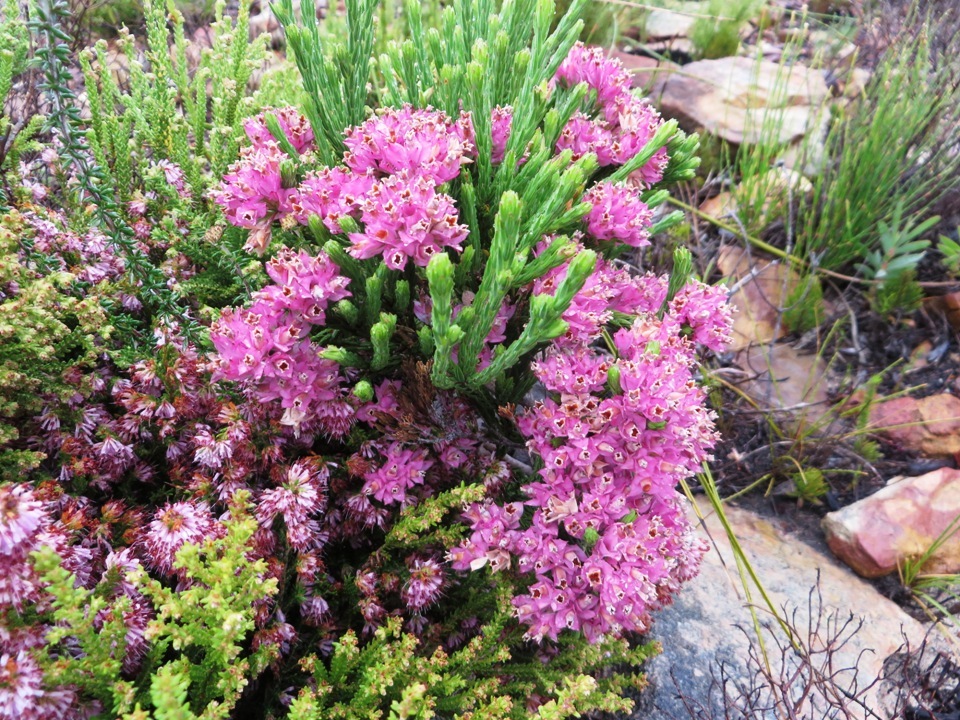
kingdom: Plantae
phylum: Tracheophyta
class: Magnoliopsida
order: Ericales
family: Ericaceae
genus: Erica
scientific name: Erica corifolia
